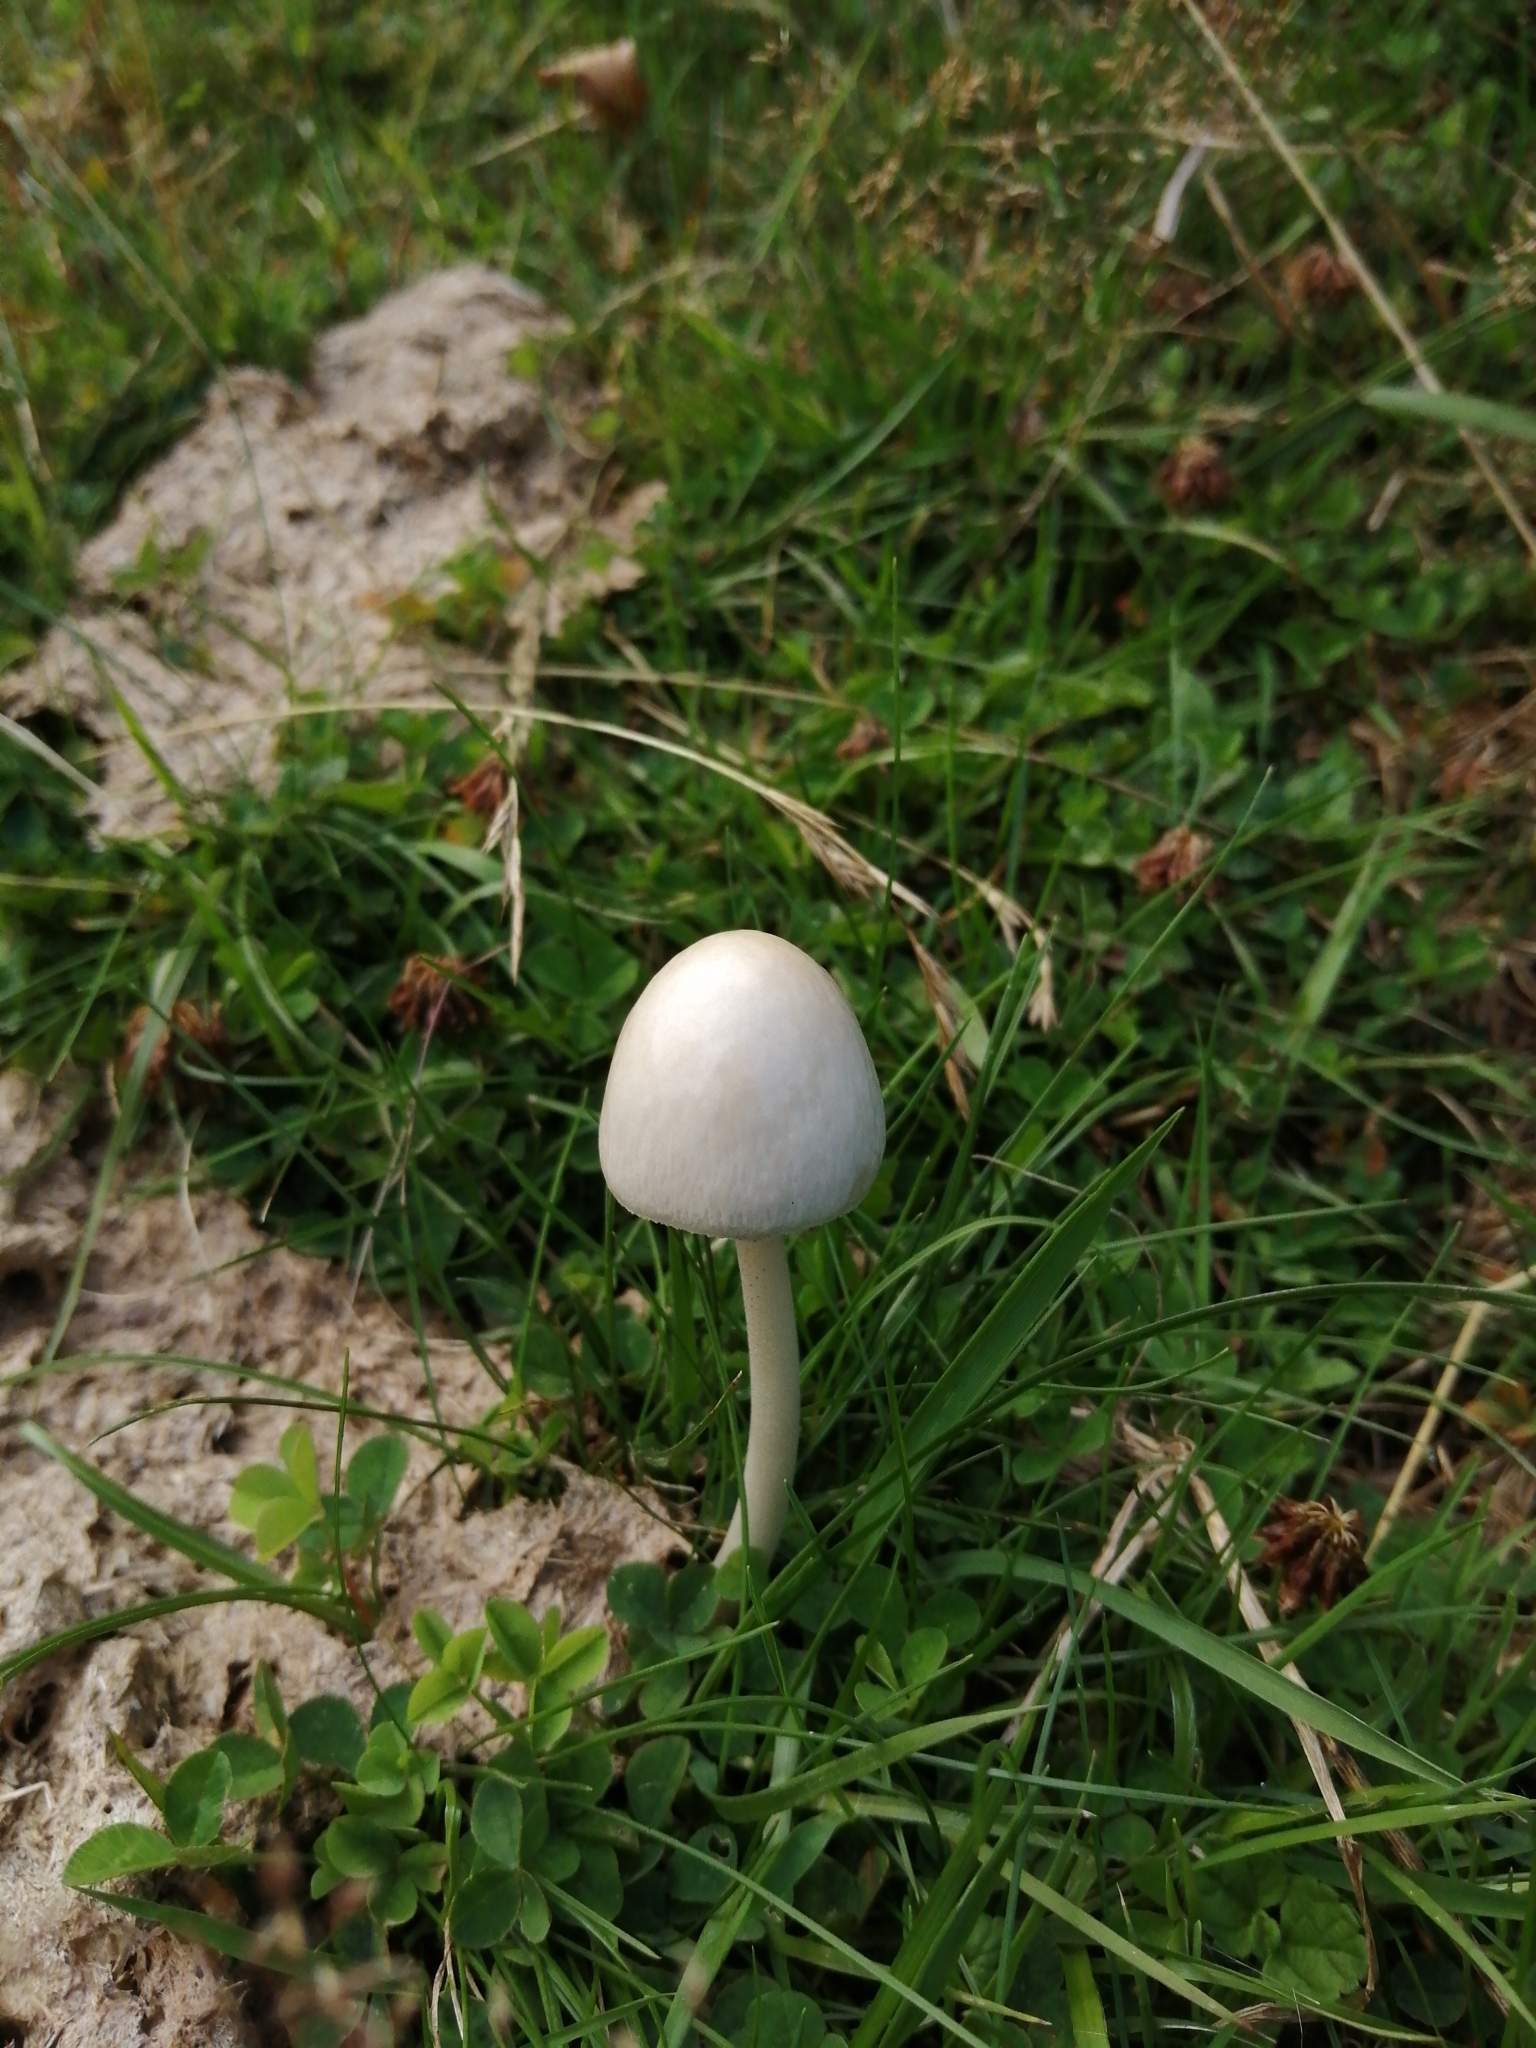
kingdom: Fungi
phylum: Basidiomycota
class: Agaricomycetes
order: Agaricales
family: Bolbitiaceae
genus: Panaeolus
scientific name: Panaeolus semiovatus
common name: Shiny mottlegill
